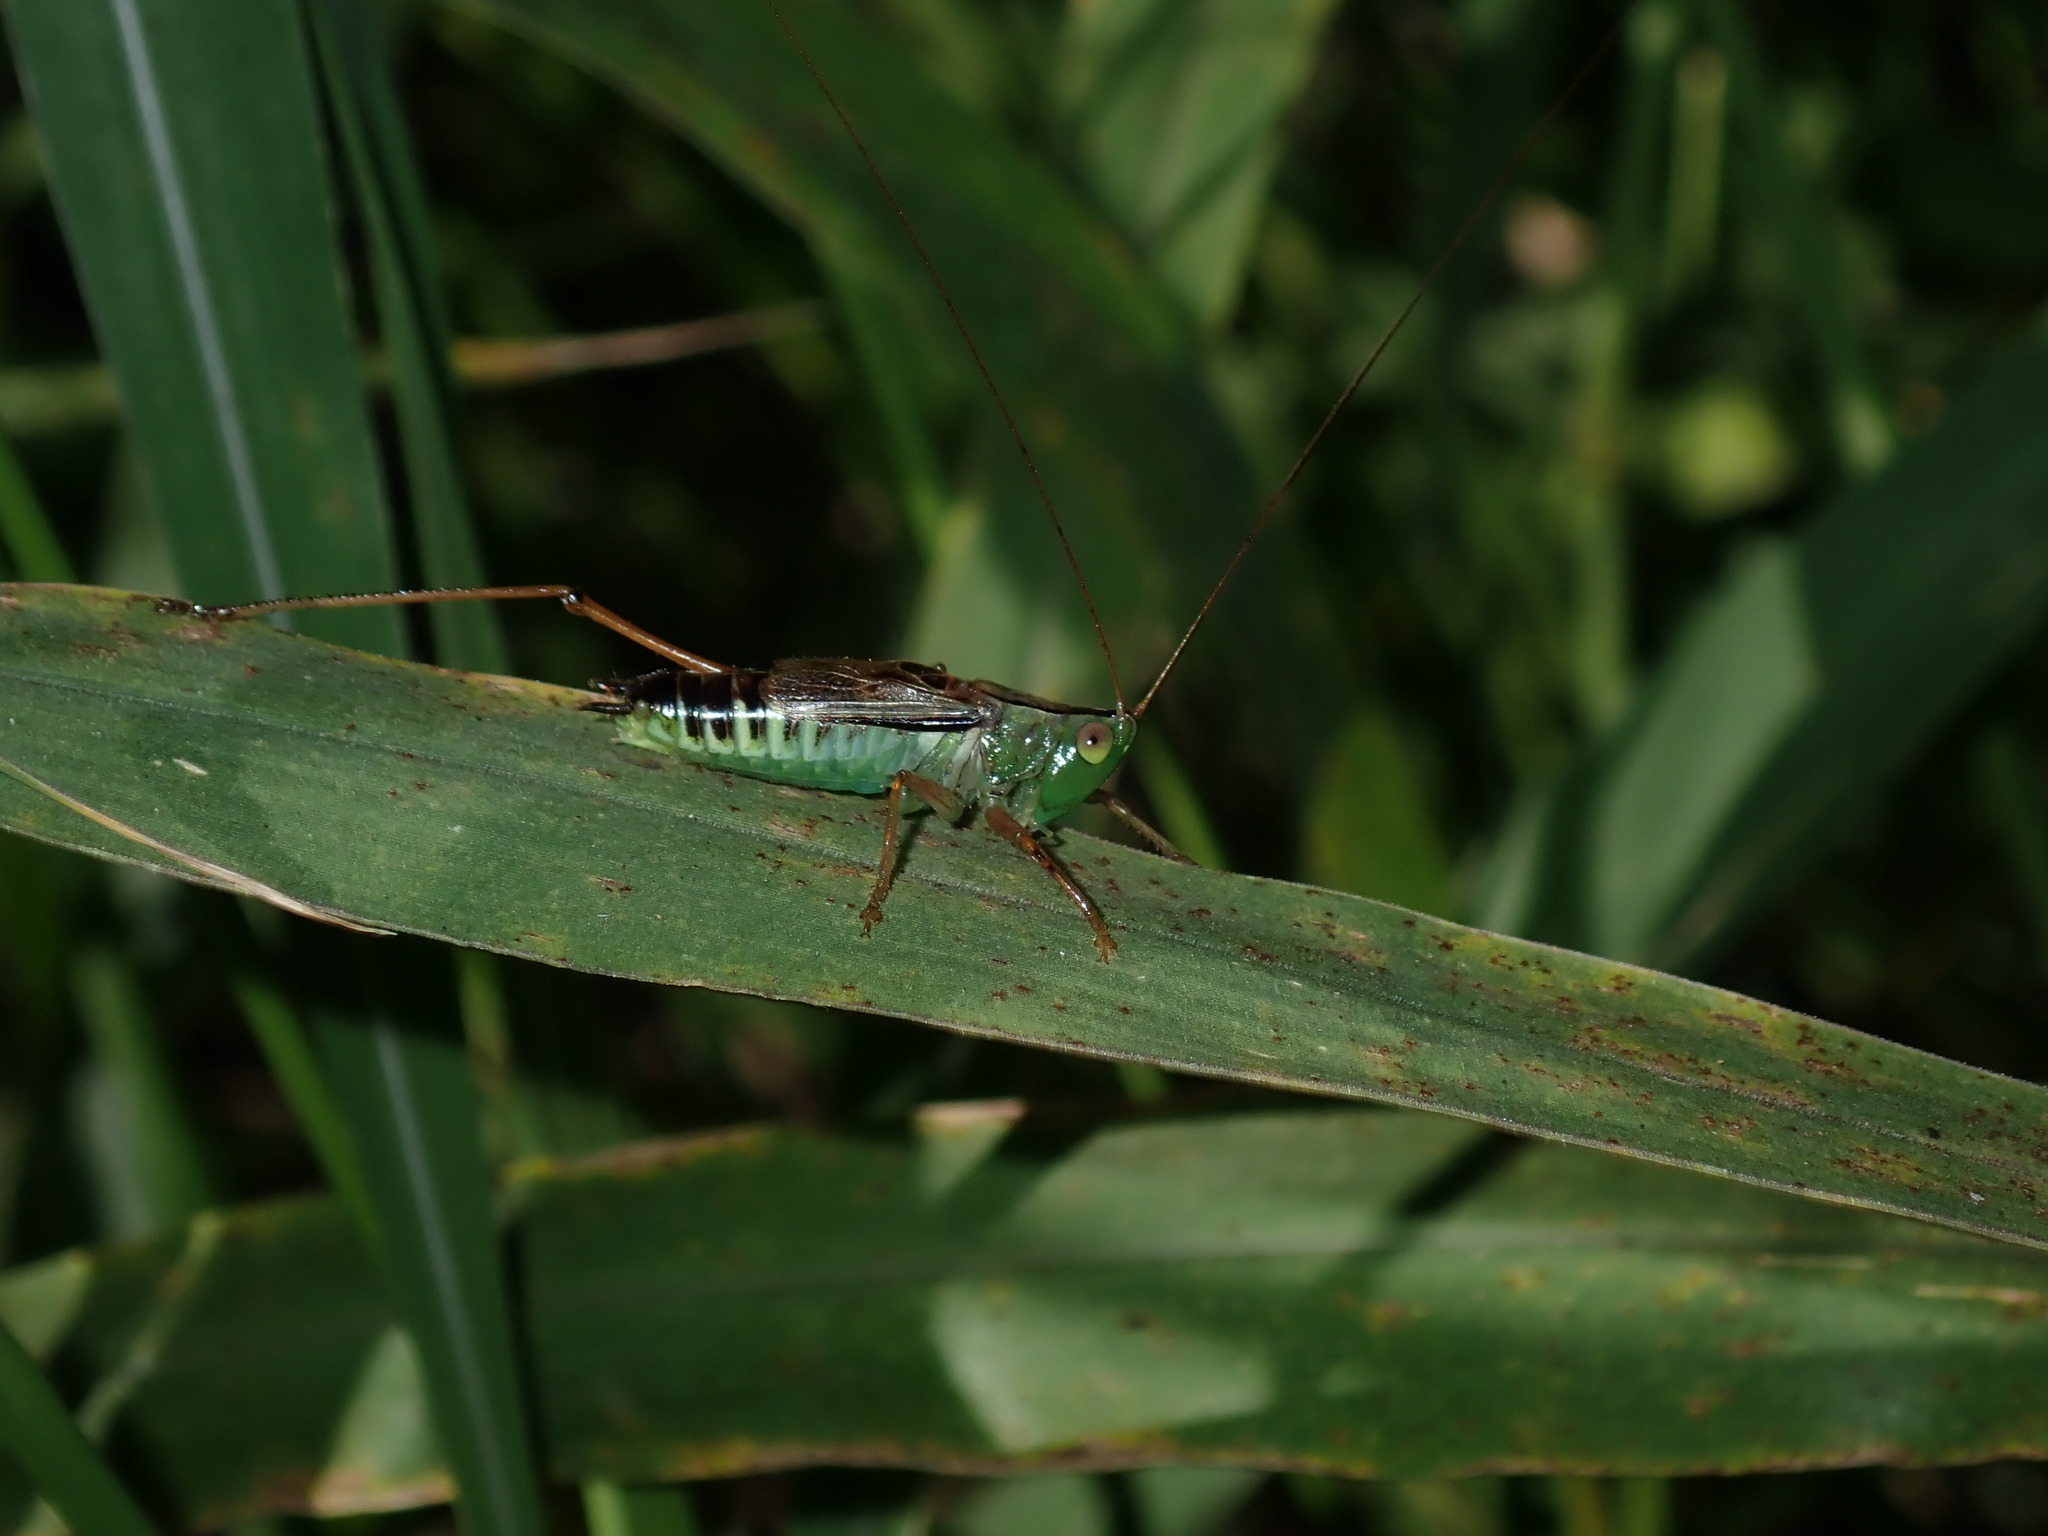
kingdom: Animalia
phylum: Arthropoda
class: Insecta
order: Orthoptera
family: Tettigoniidae
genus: Conocephalus
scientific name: Conocephalus semivittatus
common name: Blackish meadow katydid
